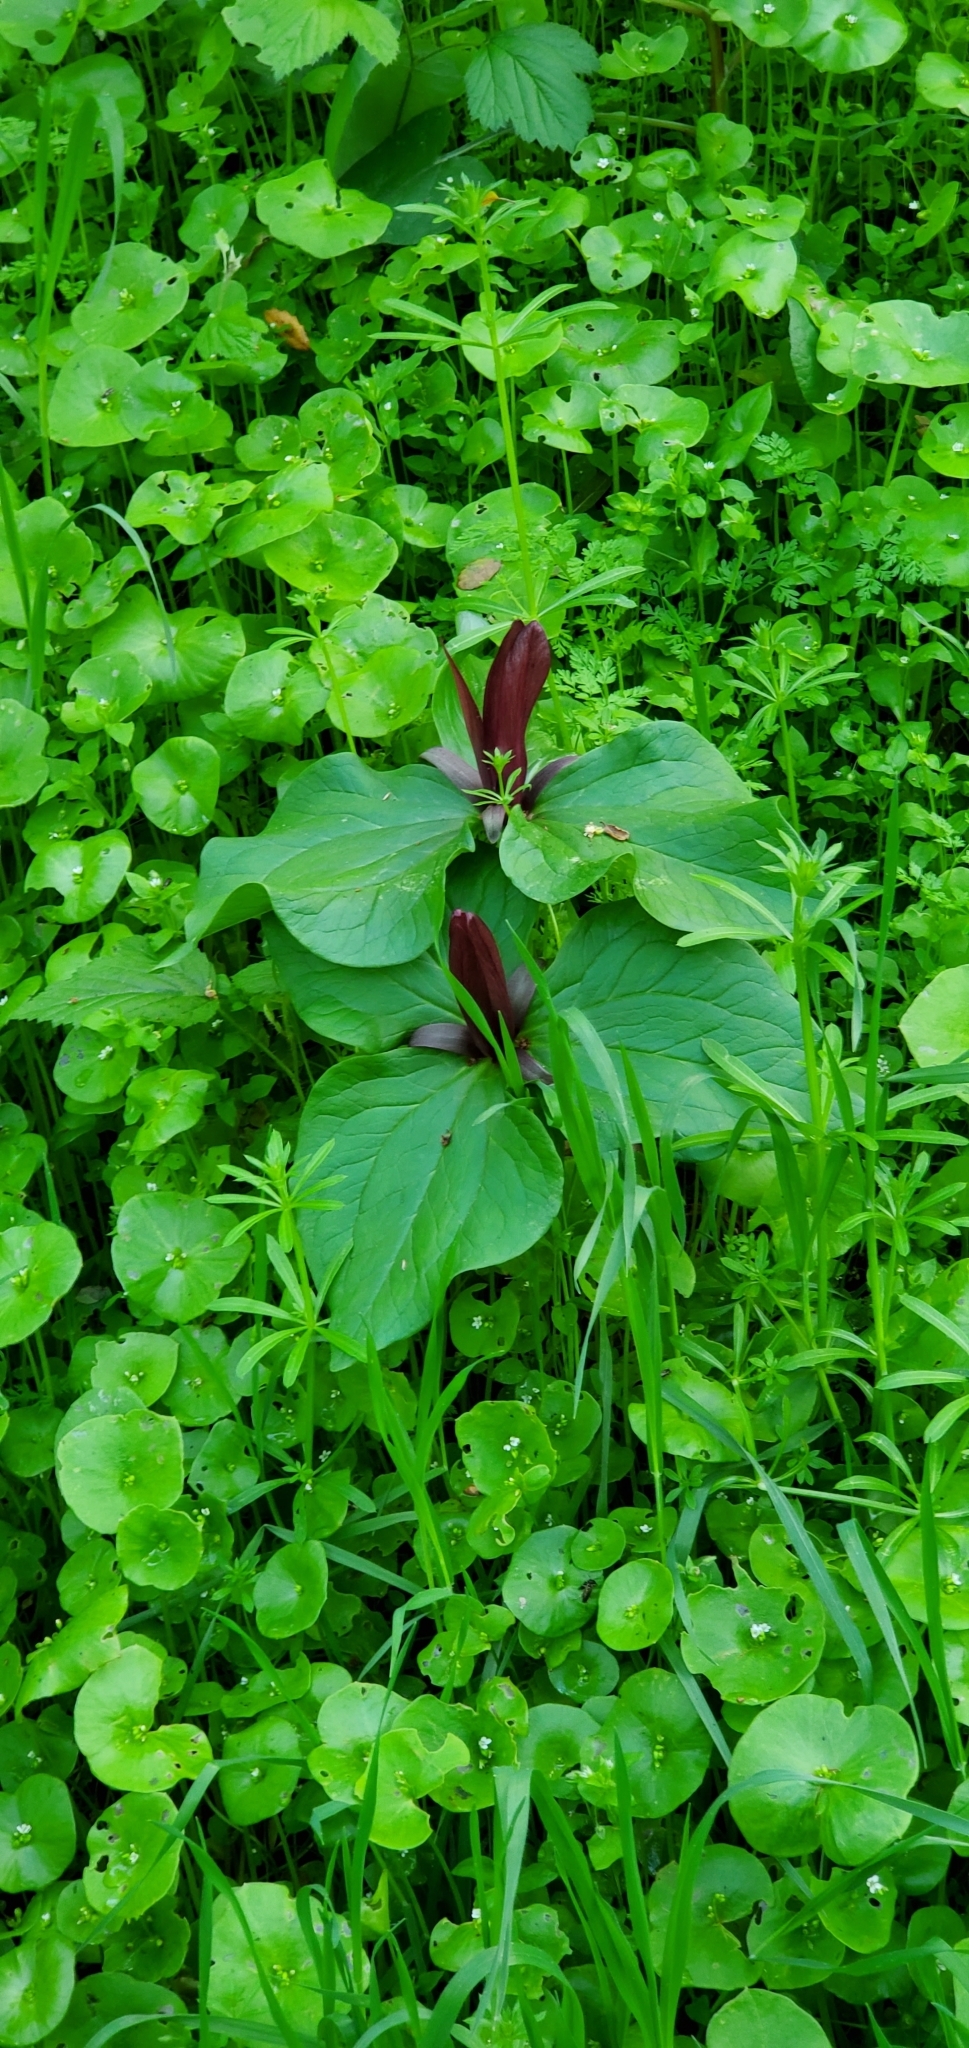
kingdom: Plantae
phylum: Tracheophyta
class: Liliopsida
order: Liliales
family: Melanthiaceae
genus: Trillium
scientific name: Trillium chloropetalum
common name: Giant trillium
